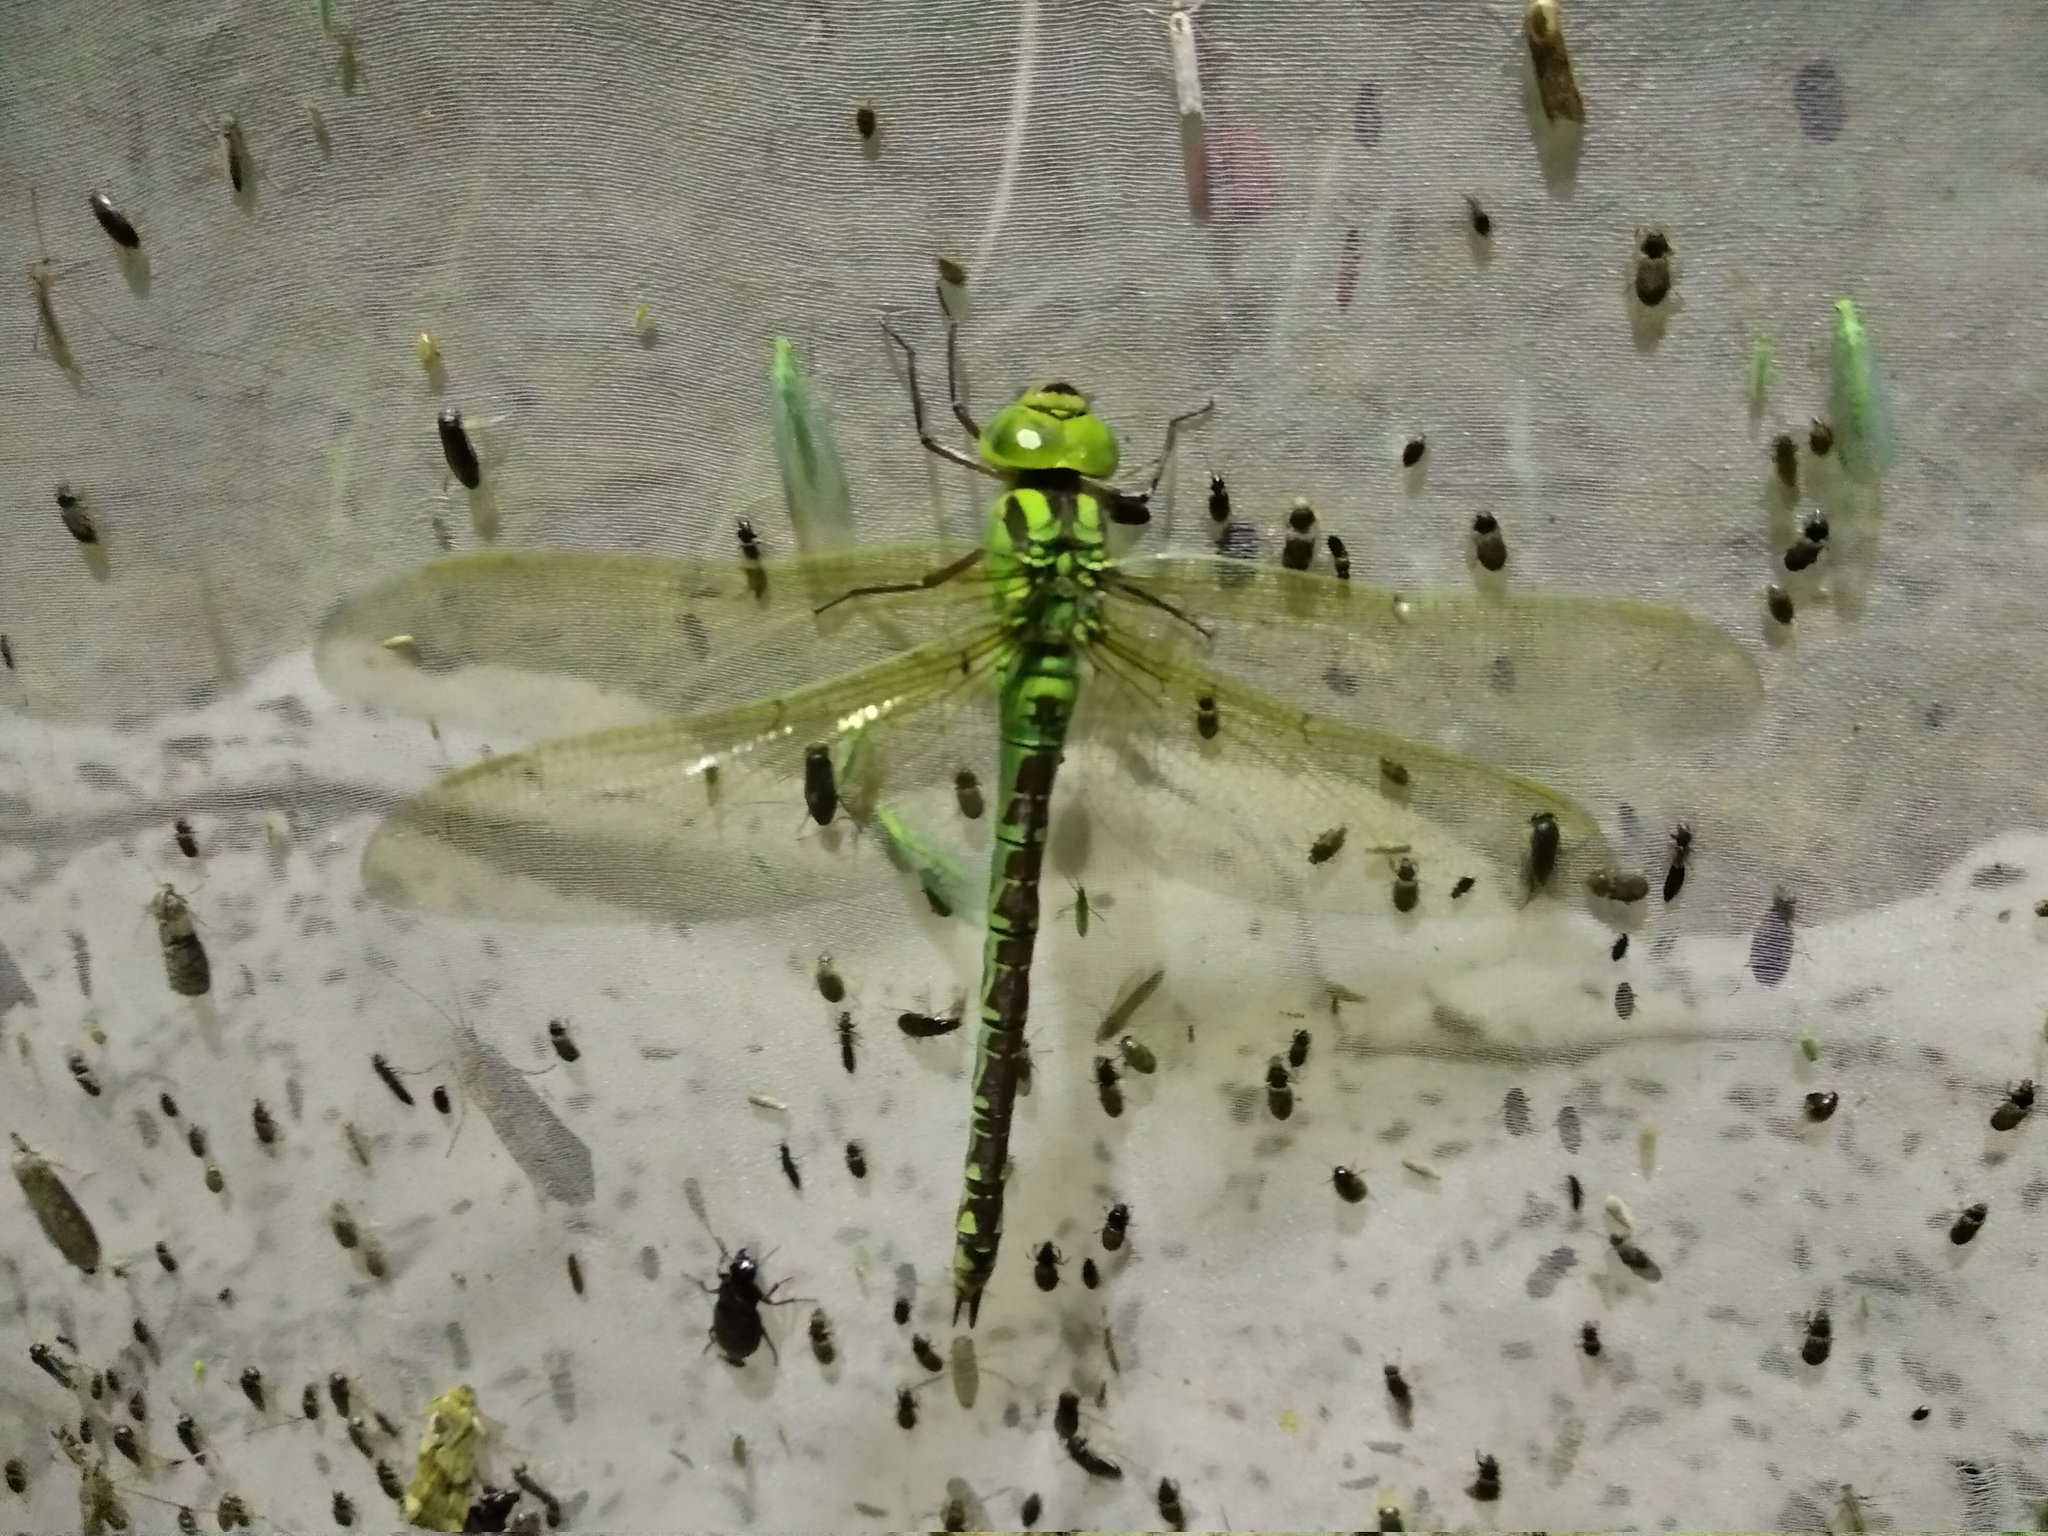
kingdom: Animalia
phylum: Arthropoda
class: Insecta
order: Odonata
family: Aeshnidae
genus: Aeshna
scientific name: Aeshna viridis
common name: Green hawker
